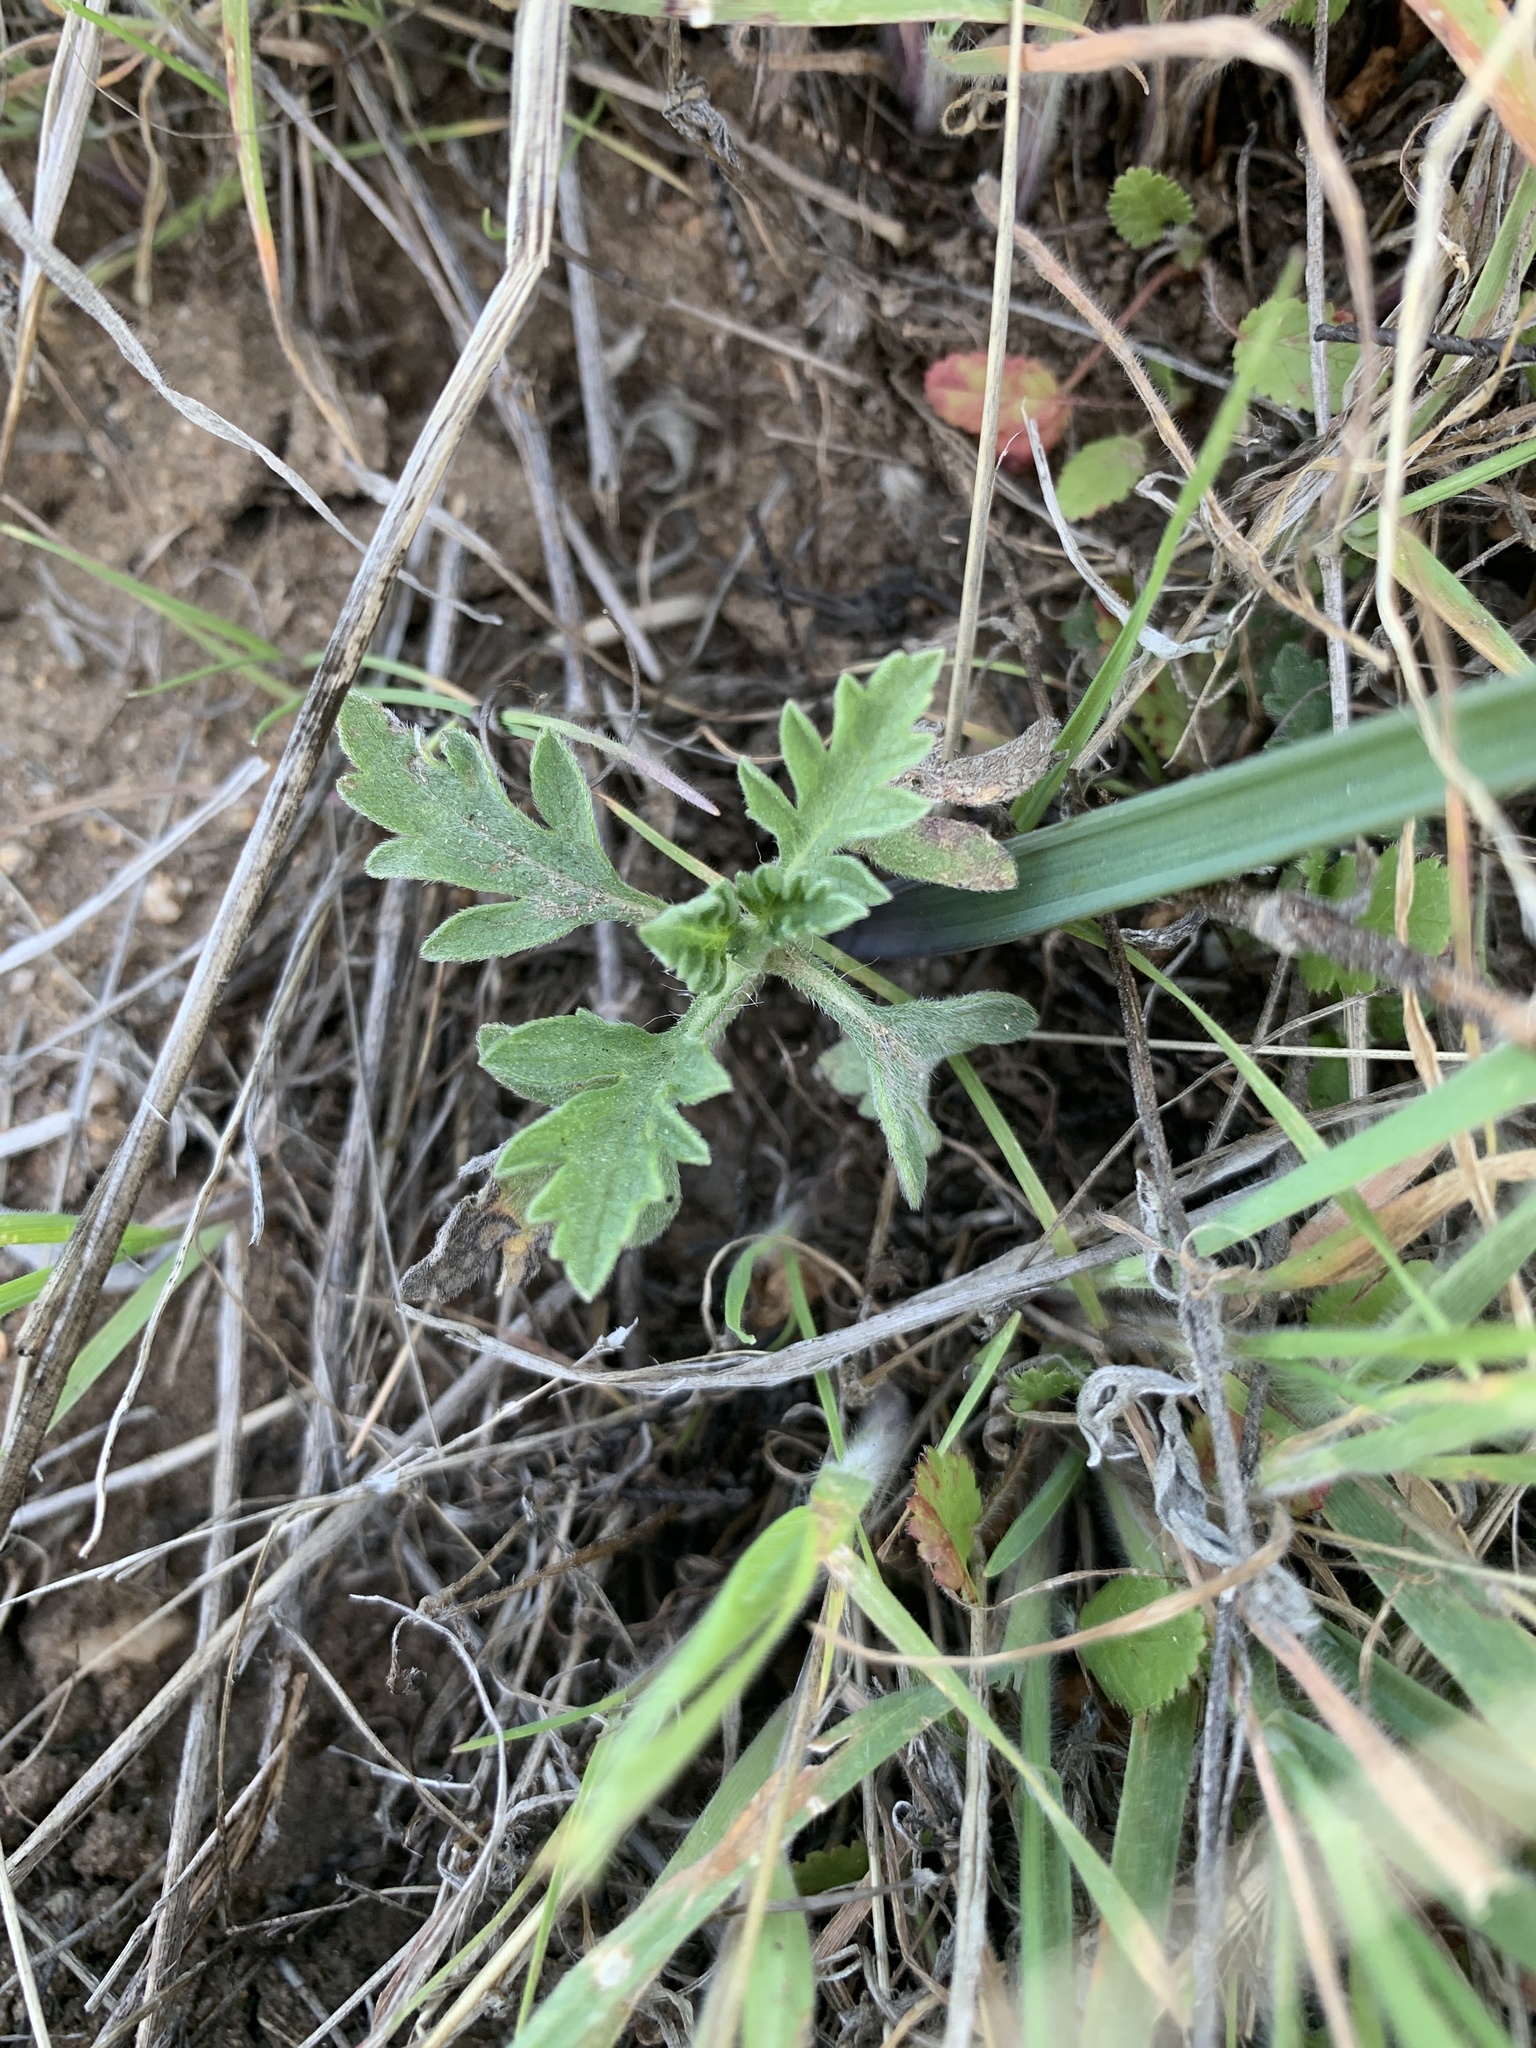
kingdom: Plantae
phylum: Tracheophyta
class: Magnoliopsida
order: Asterales
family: Asteraceae
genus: Ambrosia
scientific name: Ambrosia psilostachya
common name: Perennial ragweed
